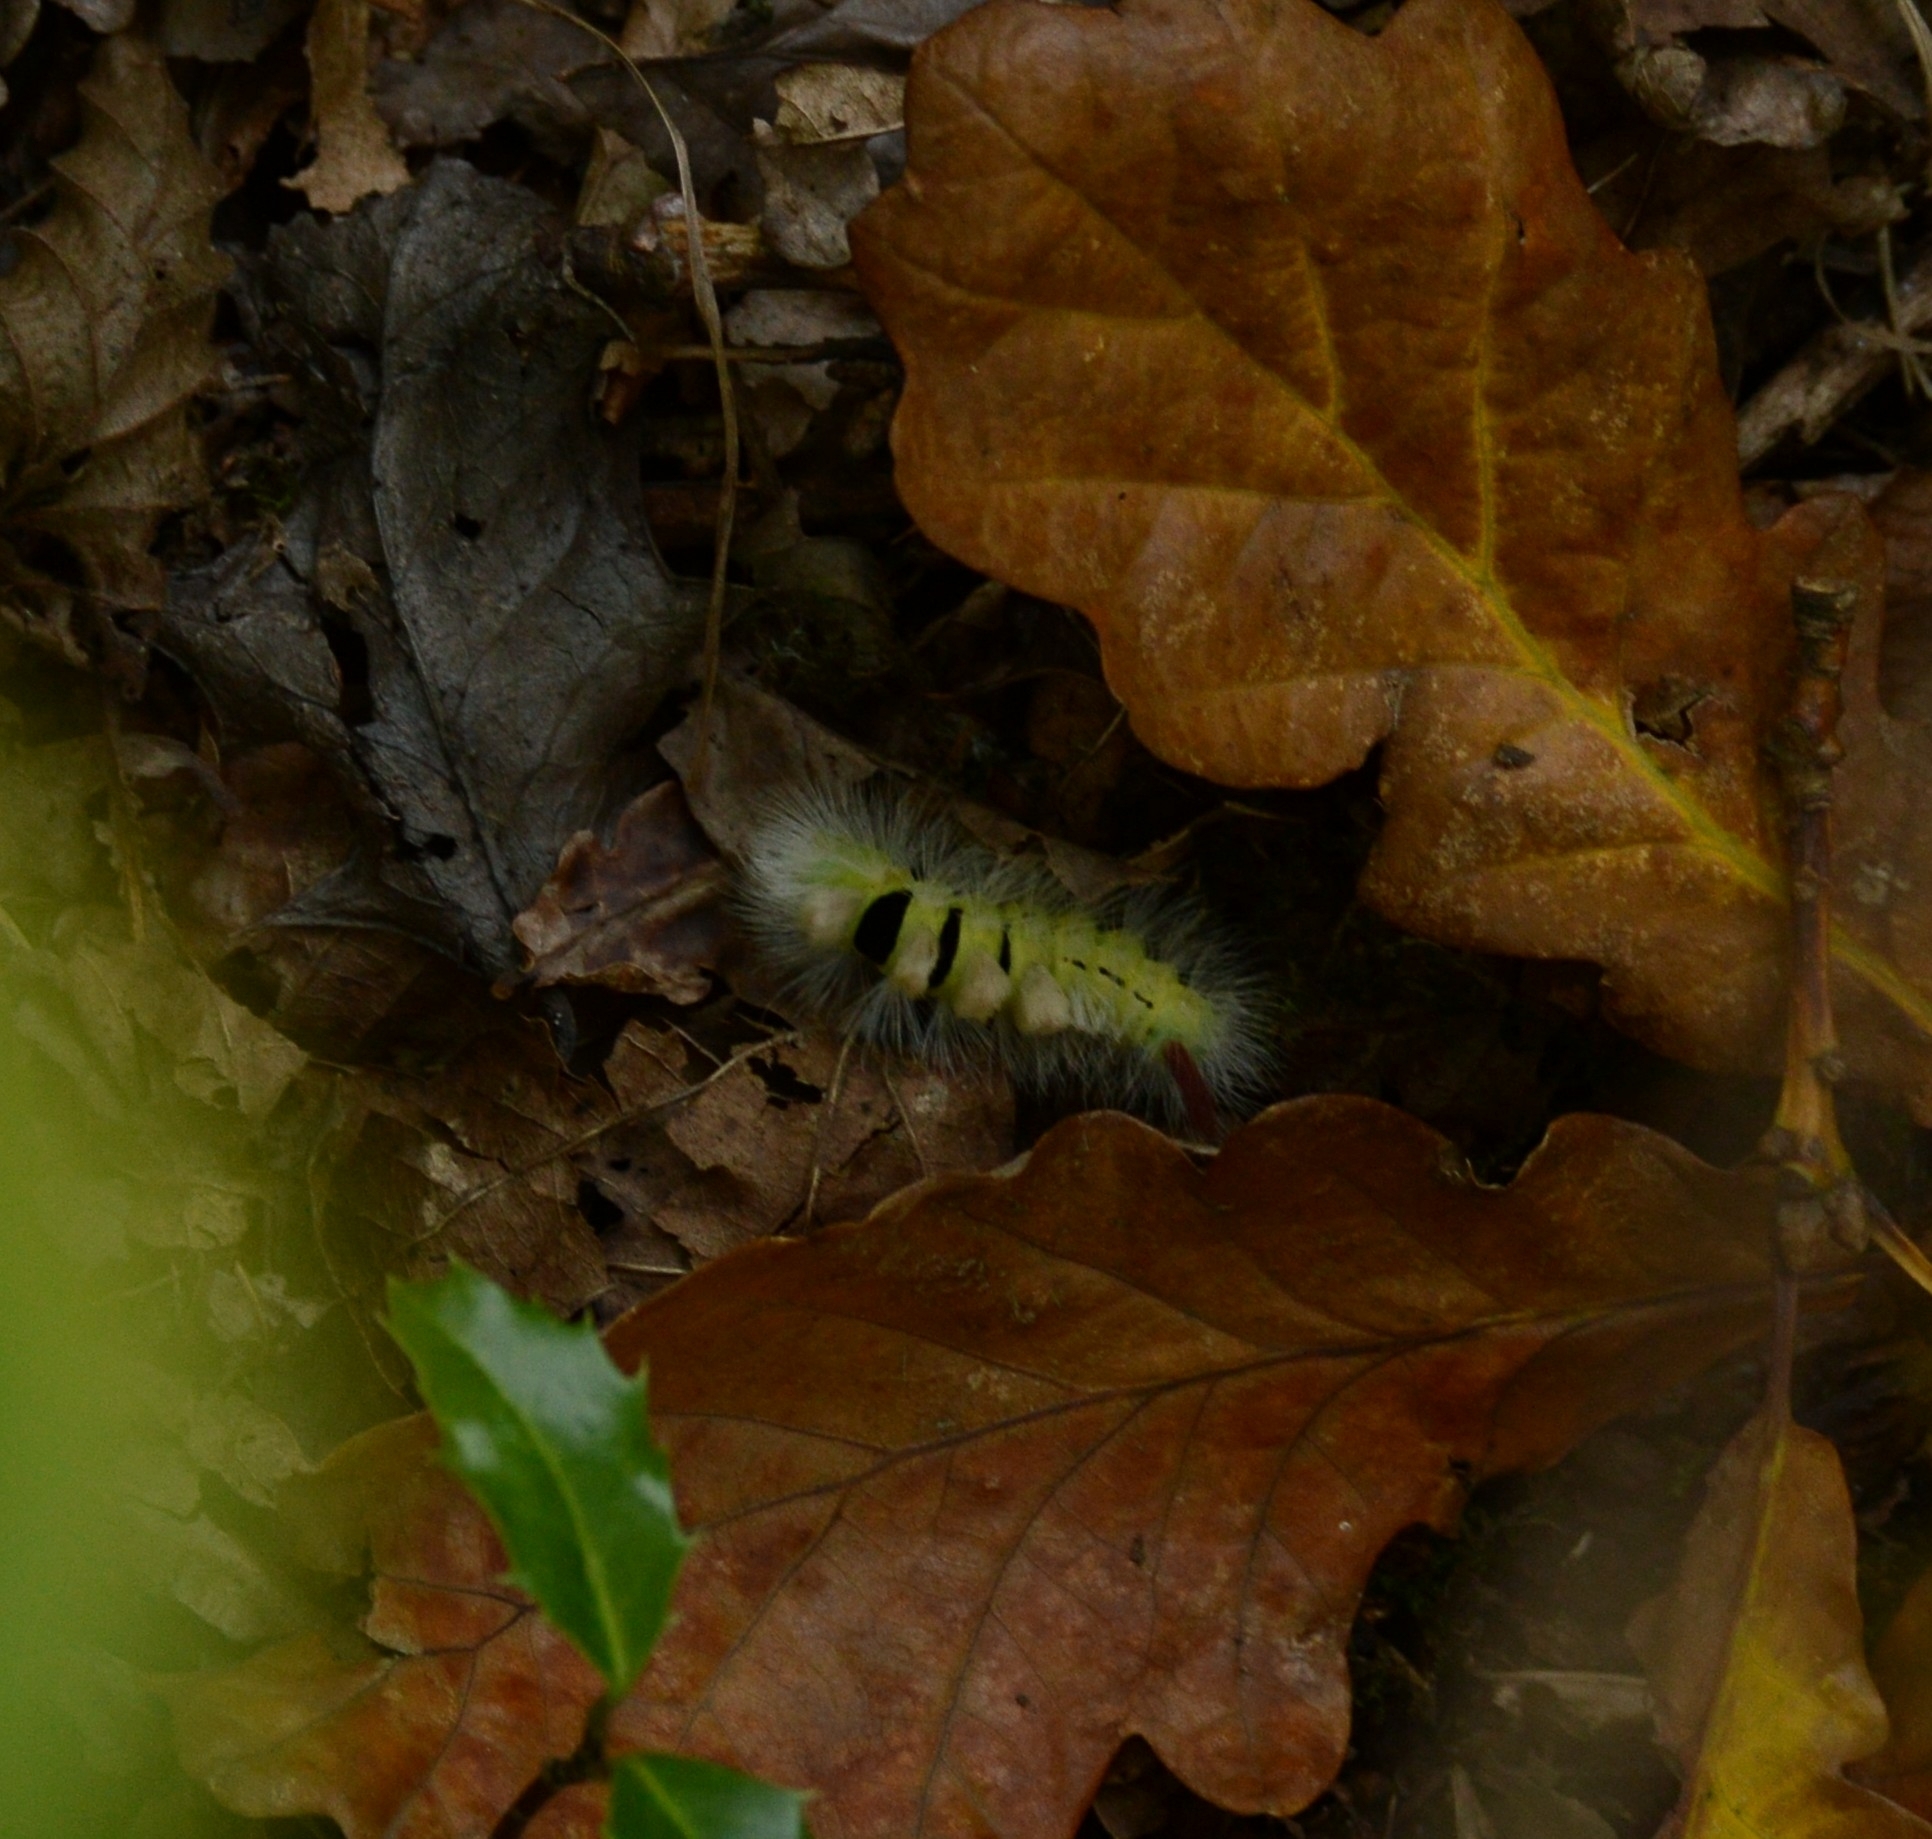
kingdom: Animalia
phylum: Arthropoda
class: Insecta
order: Lepidoptera
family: Erebidae
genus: Calliteara
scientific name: Calliteara pudibunda
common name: Pale tussock
